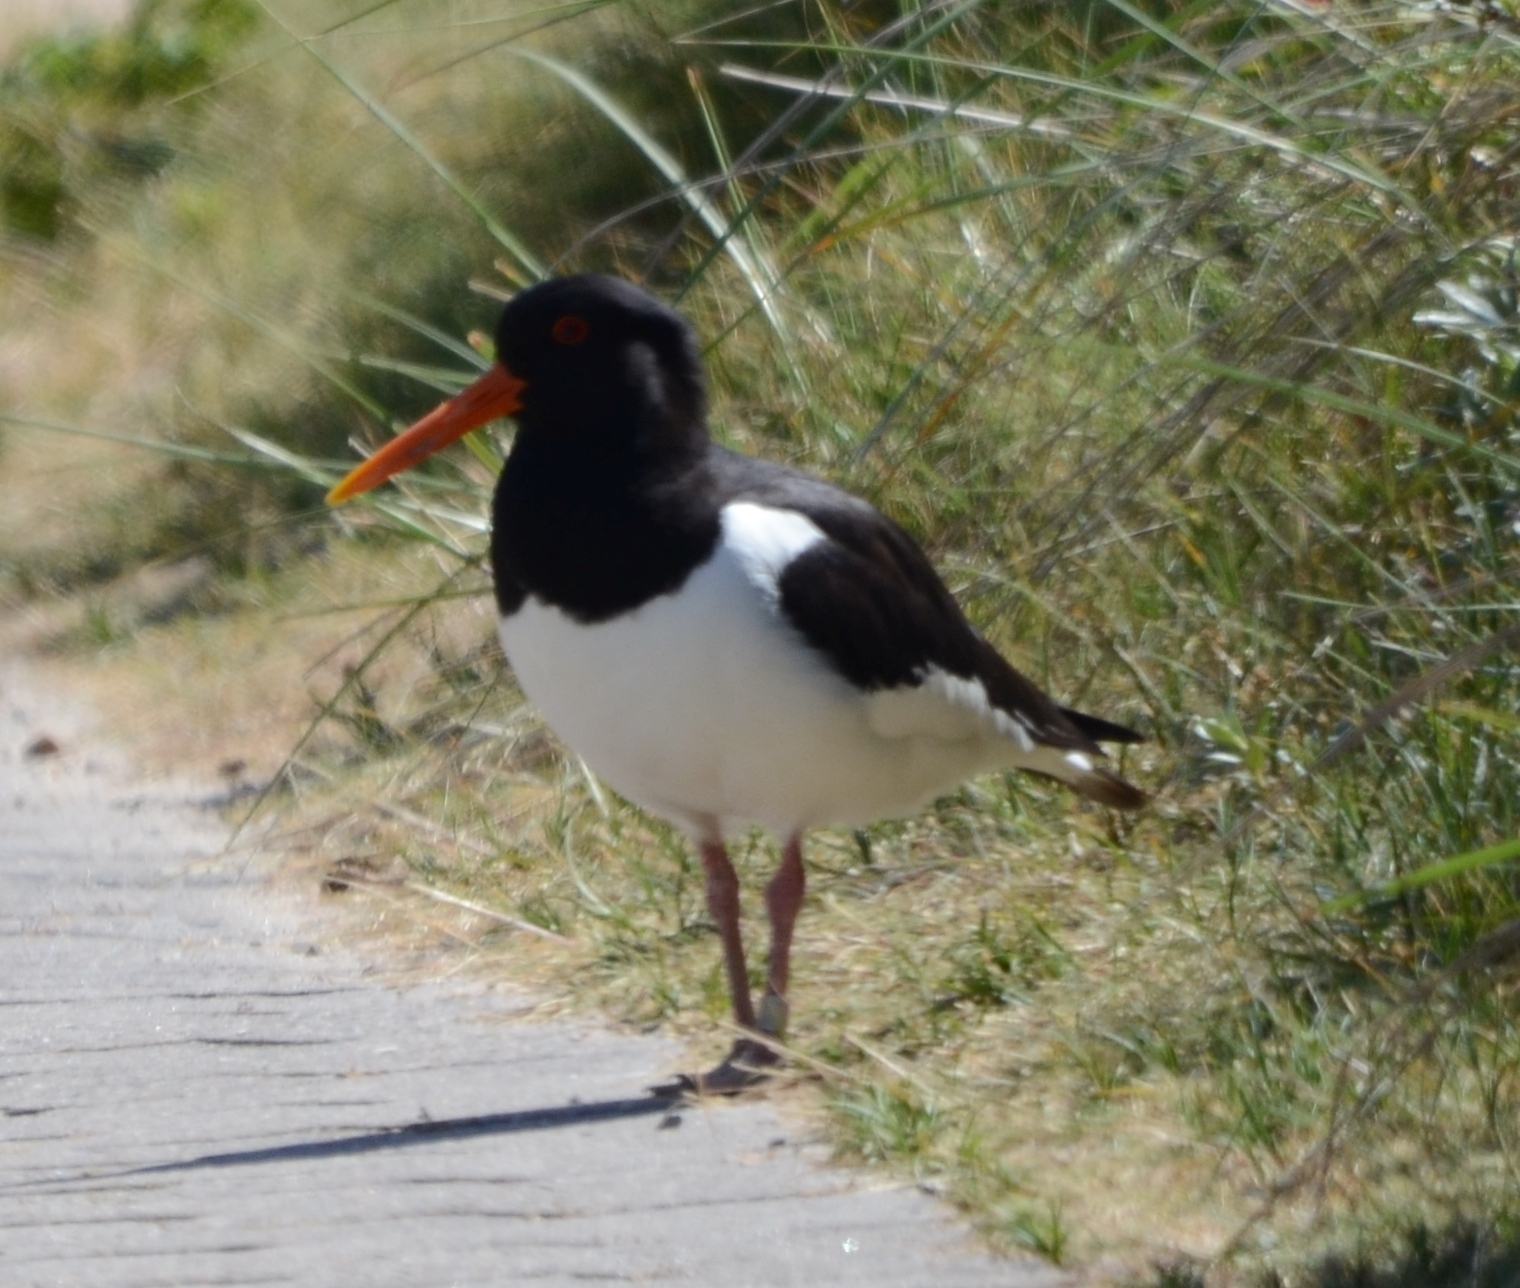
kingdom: Animalia
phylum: Chordata
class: Aves
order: Charadriiformes
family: Haematopodidae
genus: Haematopus
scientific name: Haematopus ostralegus
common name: Eurasian oystercatcher
